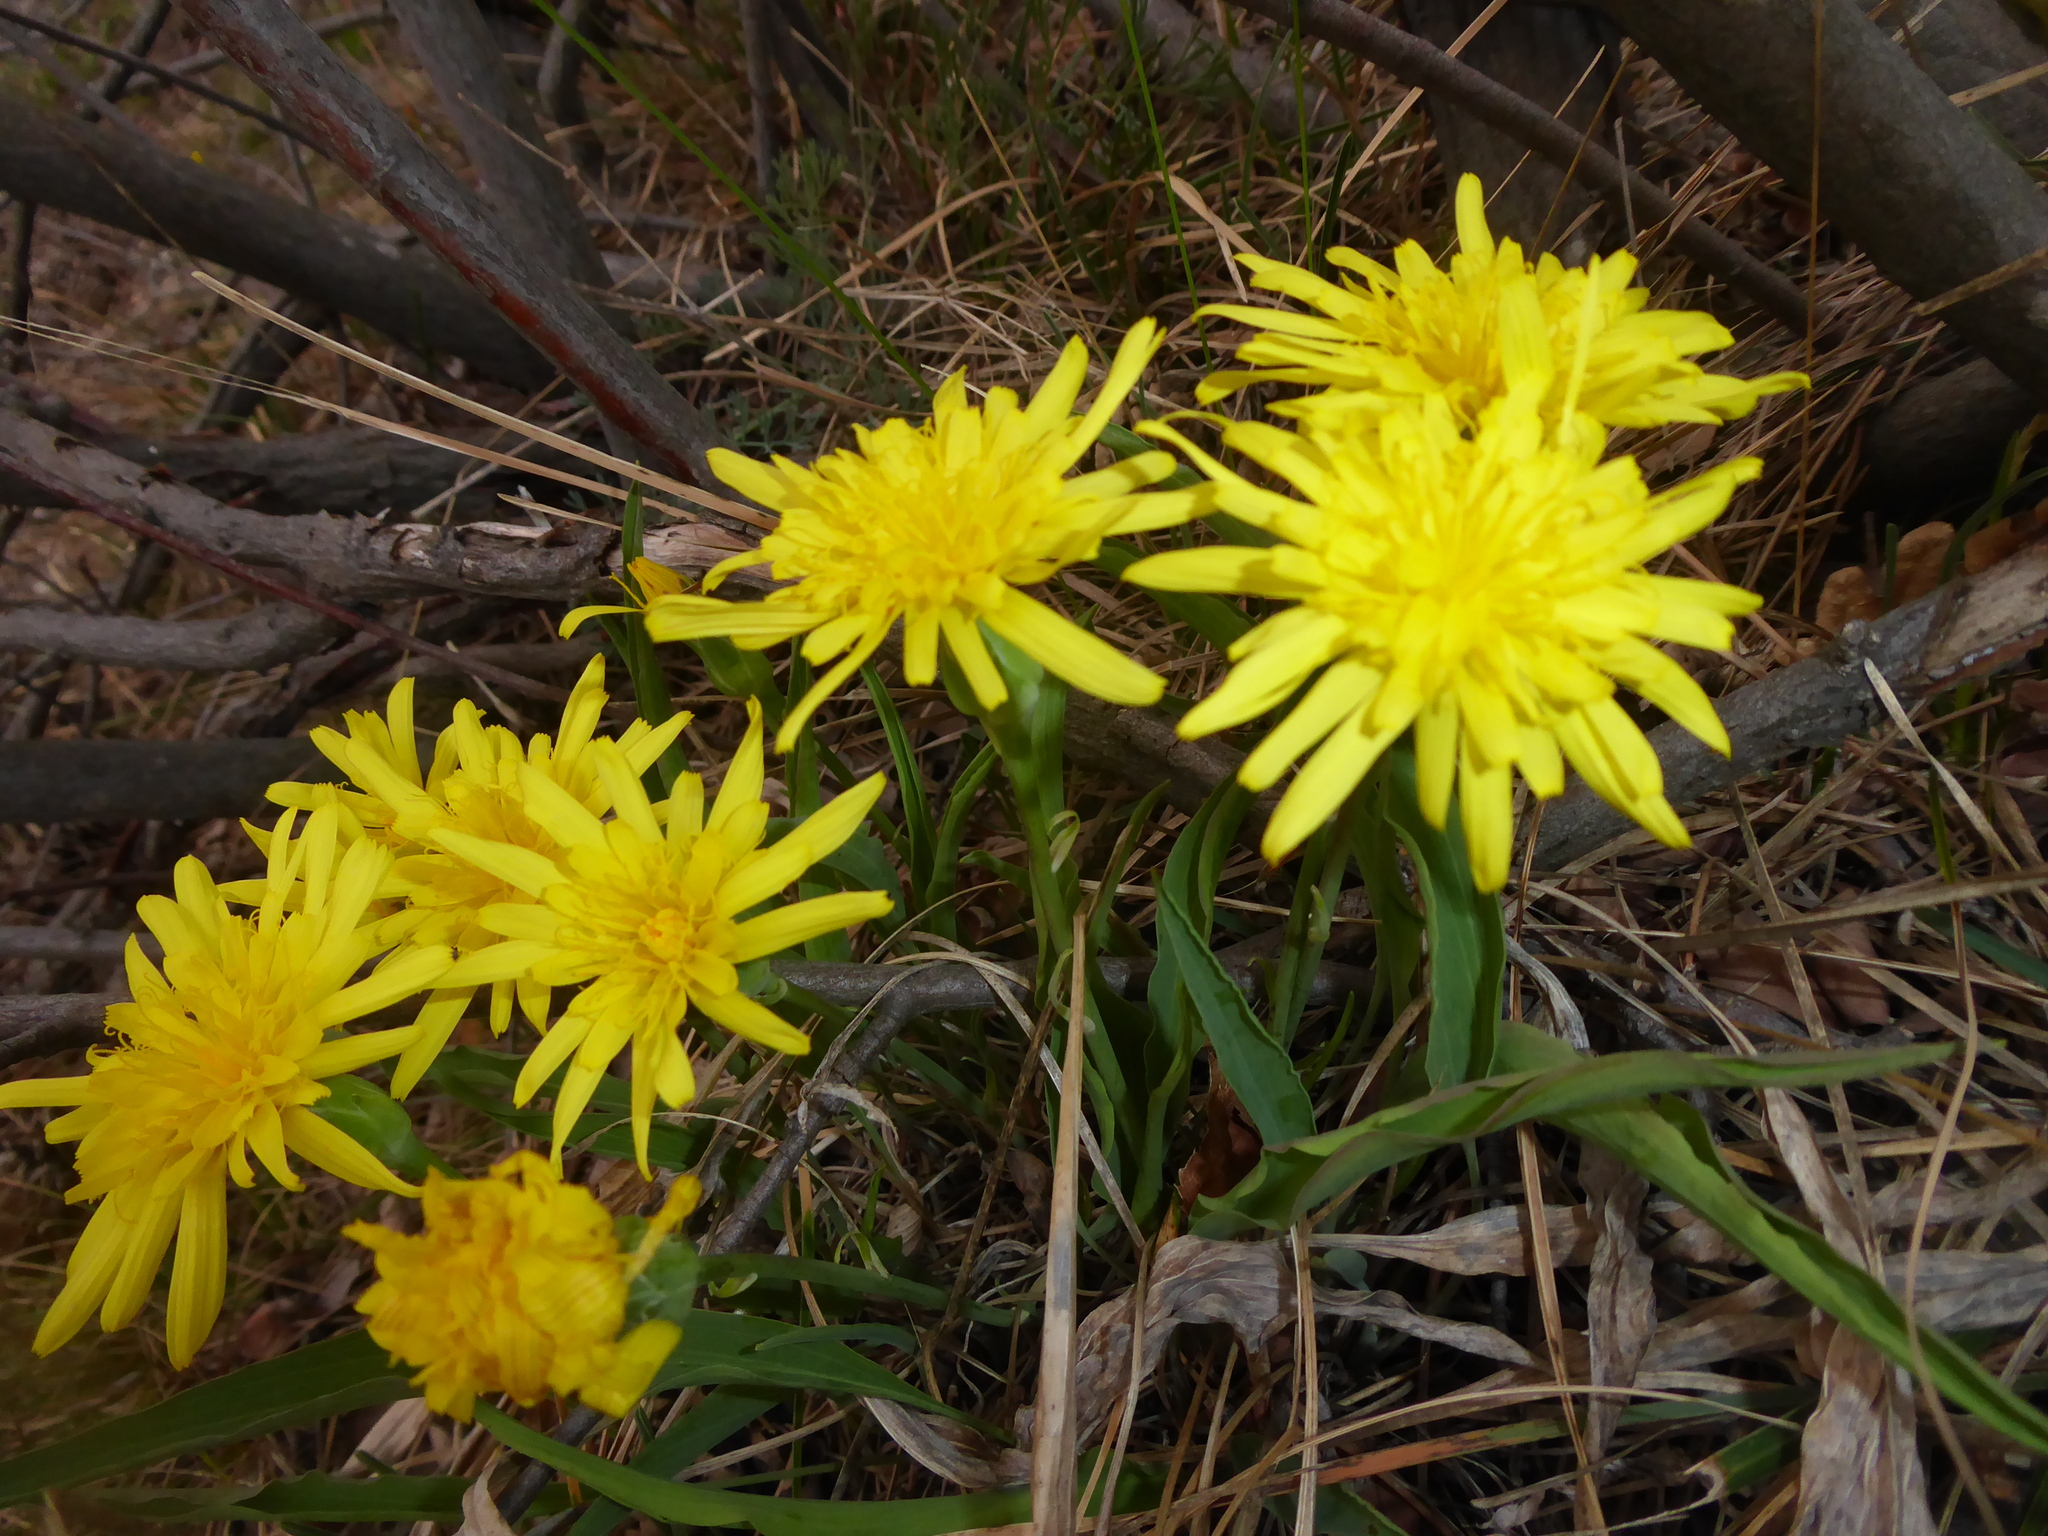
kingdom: Plantae
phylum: Tracheophyta
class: Magnoliopsida
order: Asterales
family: Asteraceae
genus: Takhtajaniantha
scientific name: Takhtajaniantha austriaca
